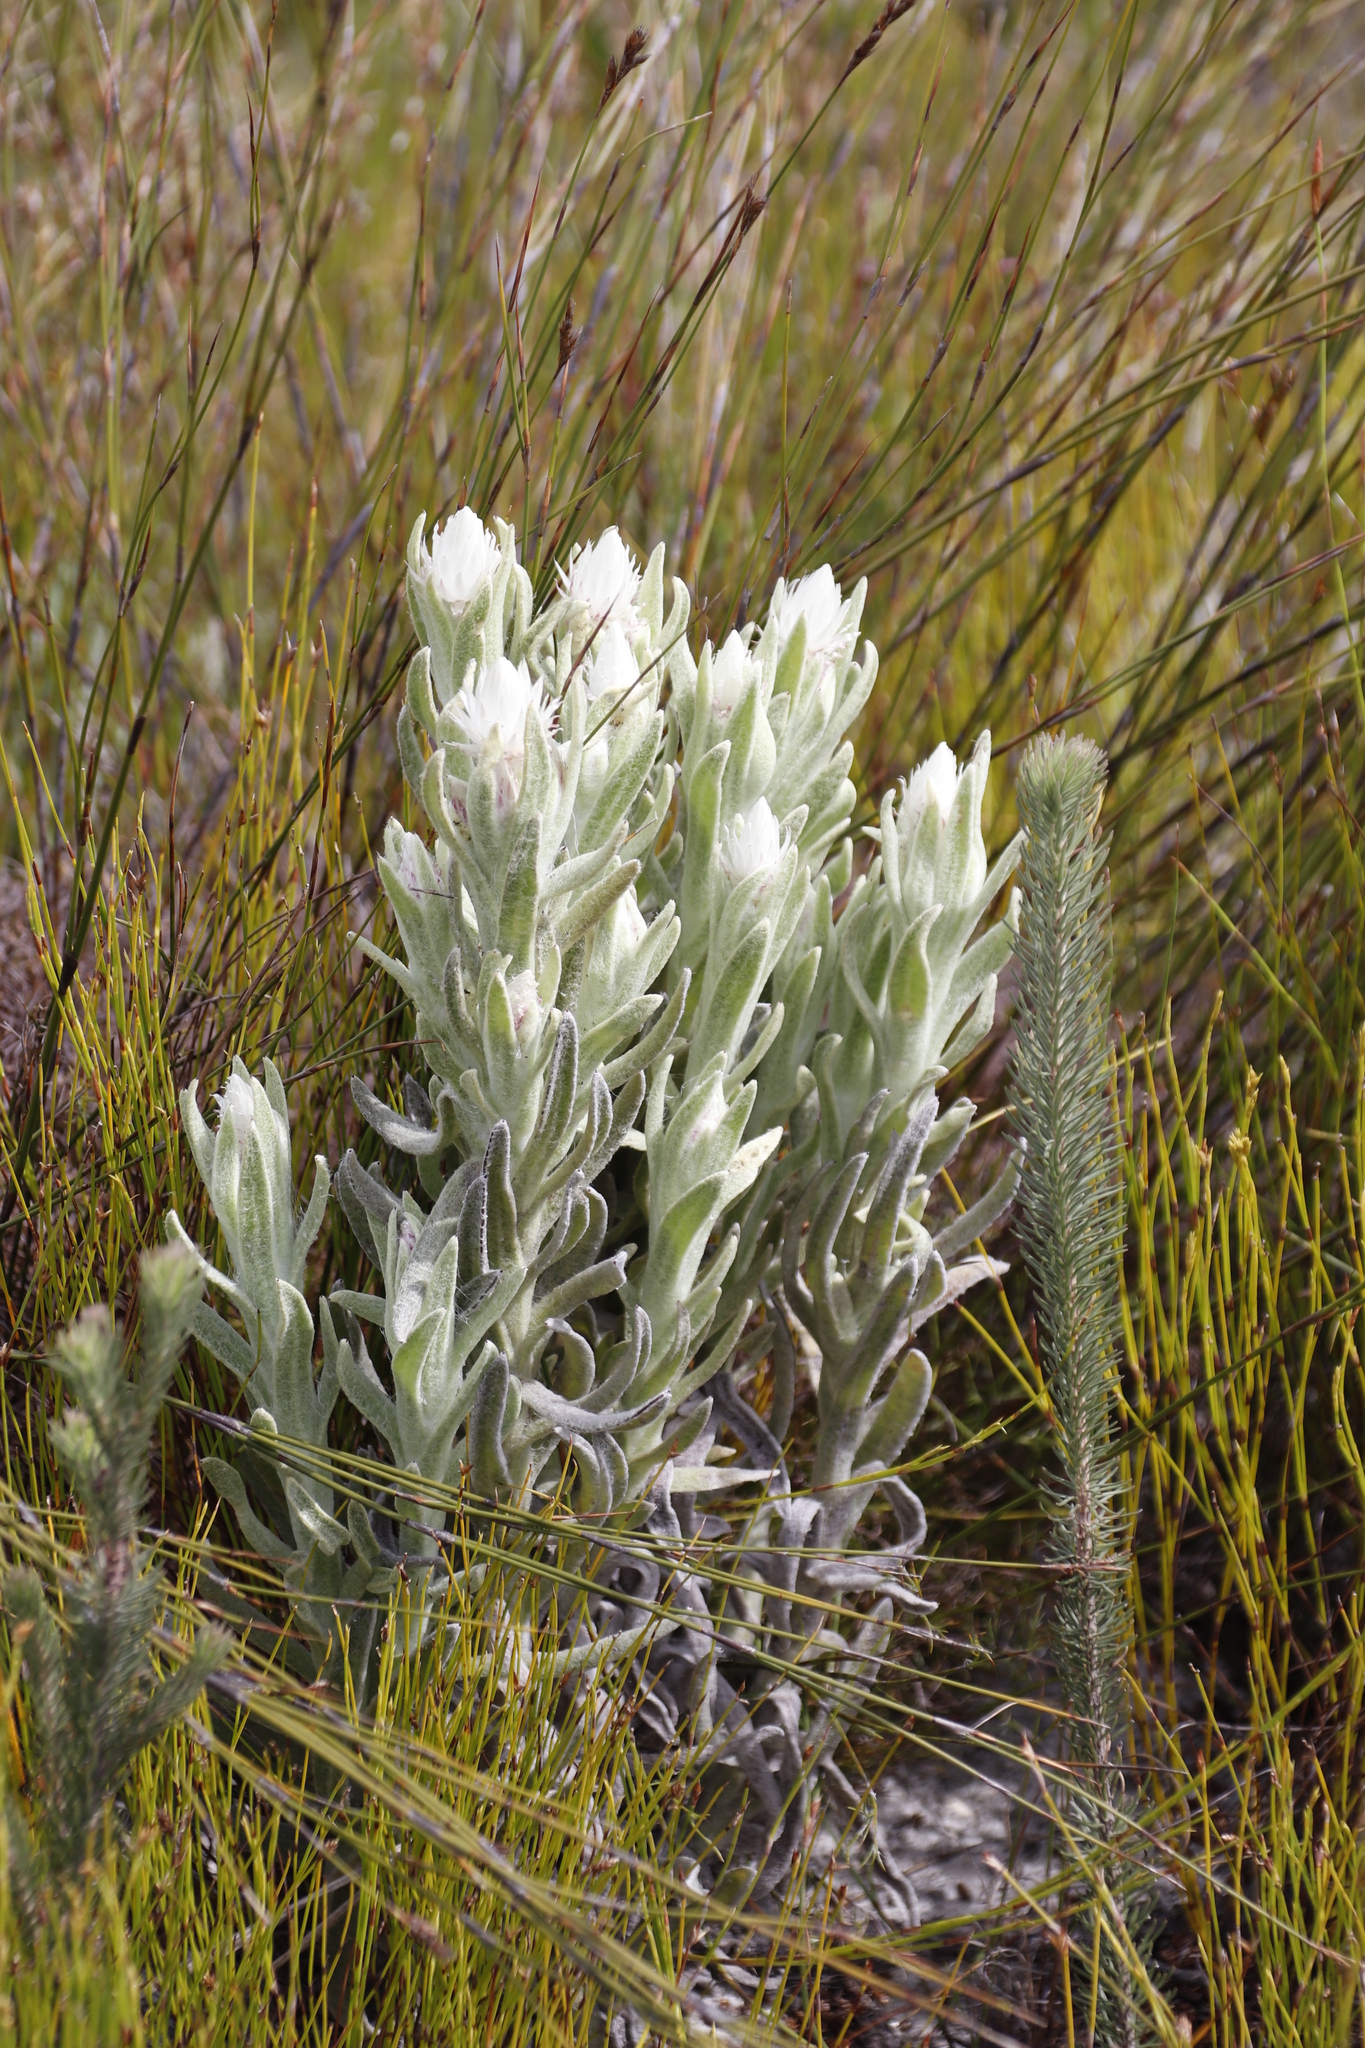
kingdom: Plantae
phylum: Tracheophyta
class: Magnoliopsida
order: Asterales
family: Asteraceae
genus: Syncarpha
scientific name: Syncarpha vestita
